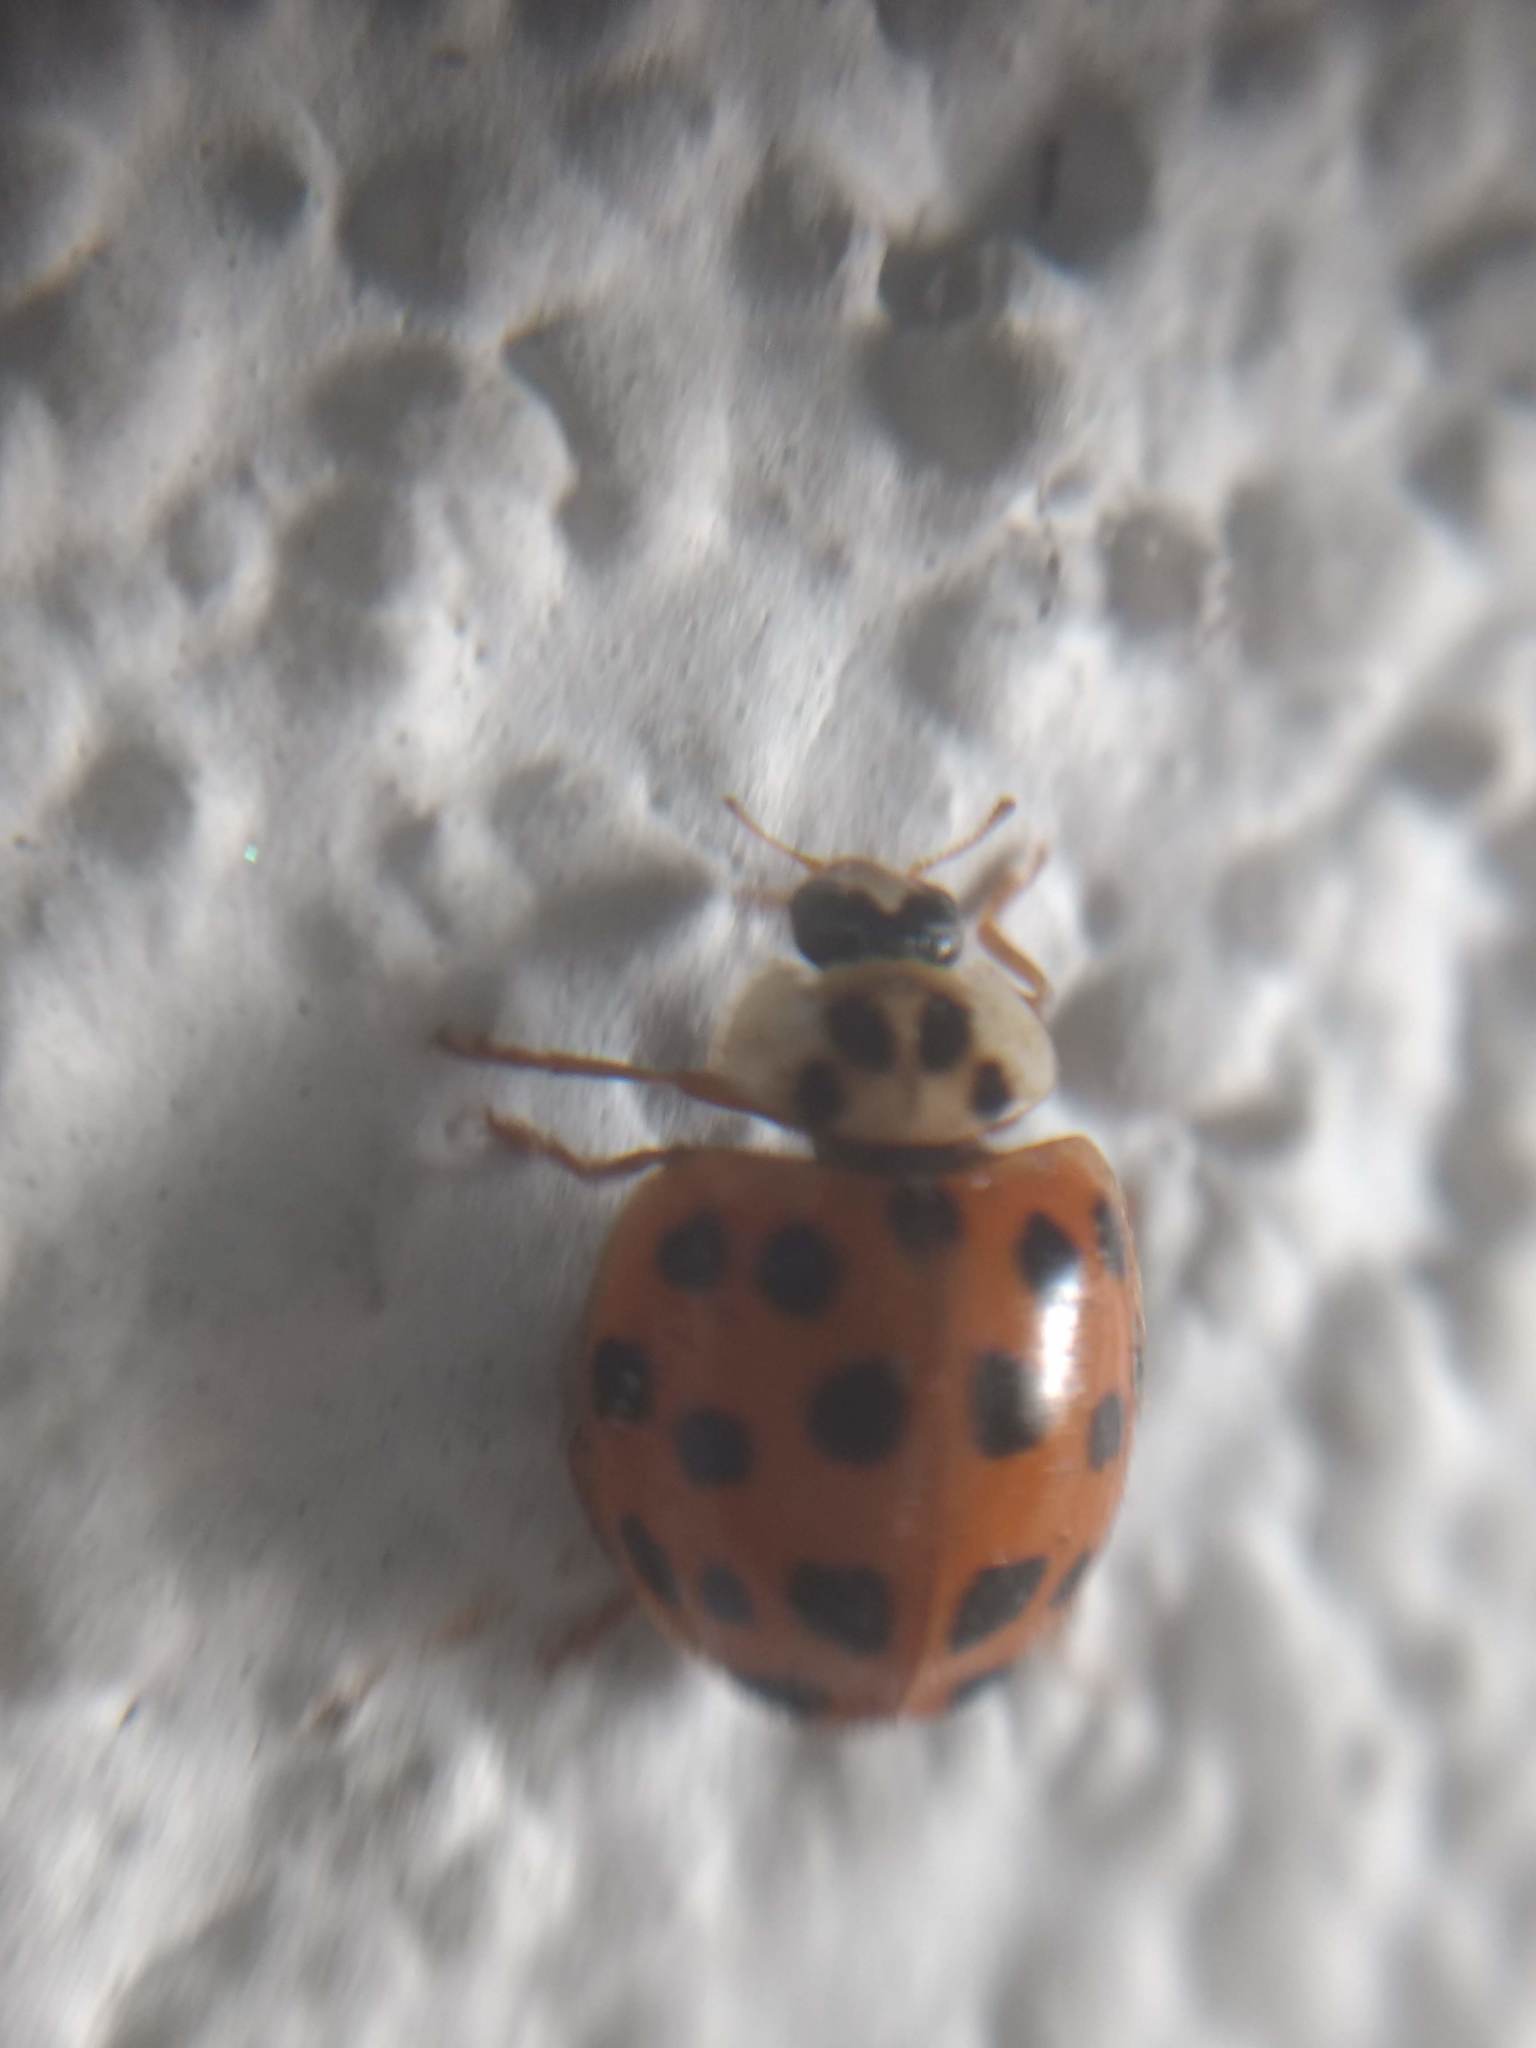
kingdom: Animalia
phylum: Arthropoda
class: Insecta
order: Coleoptera
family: Coccinellidae
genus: Harmonia
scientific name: Harmonia axyridis
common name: Harlequin ladybird
